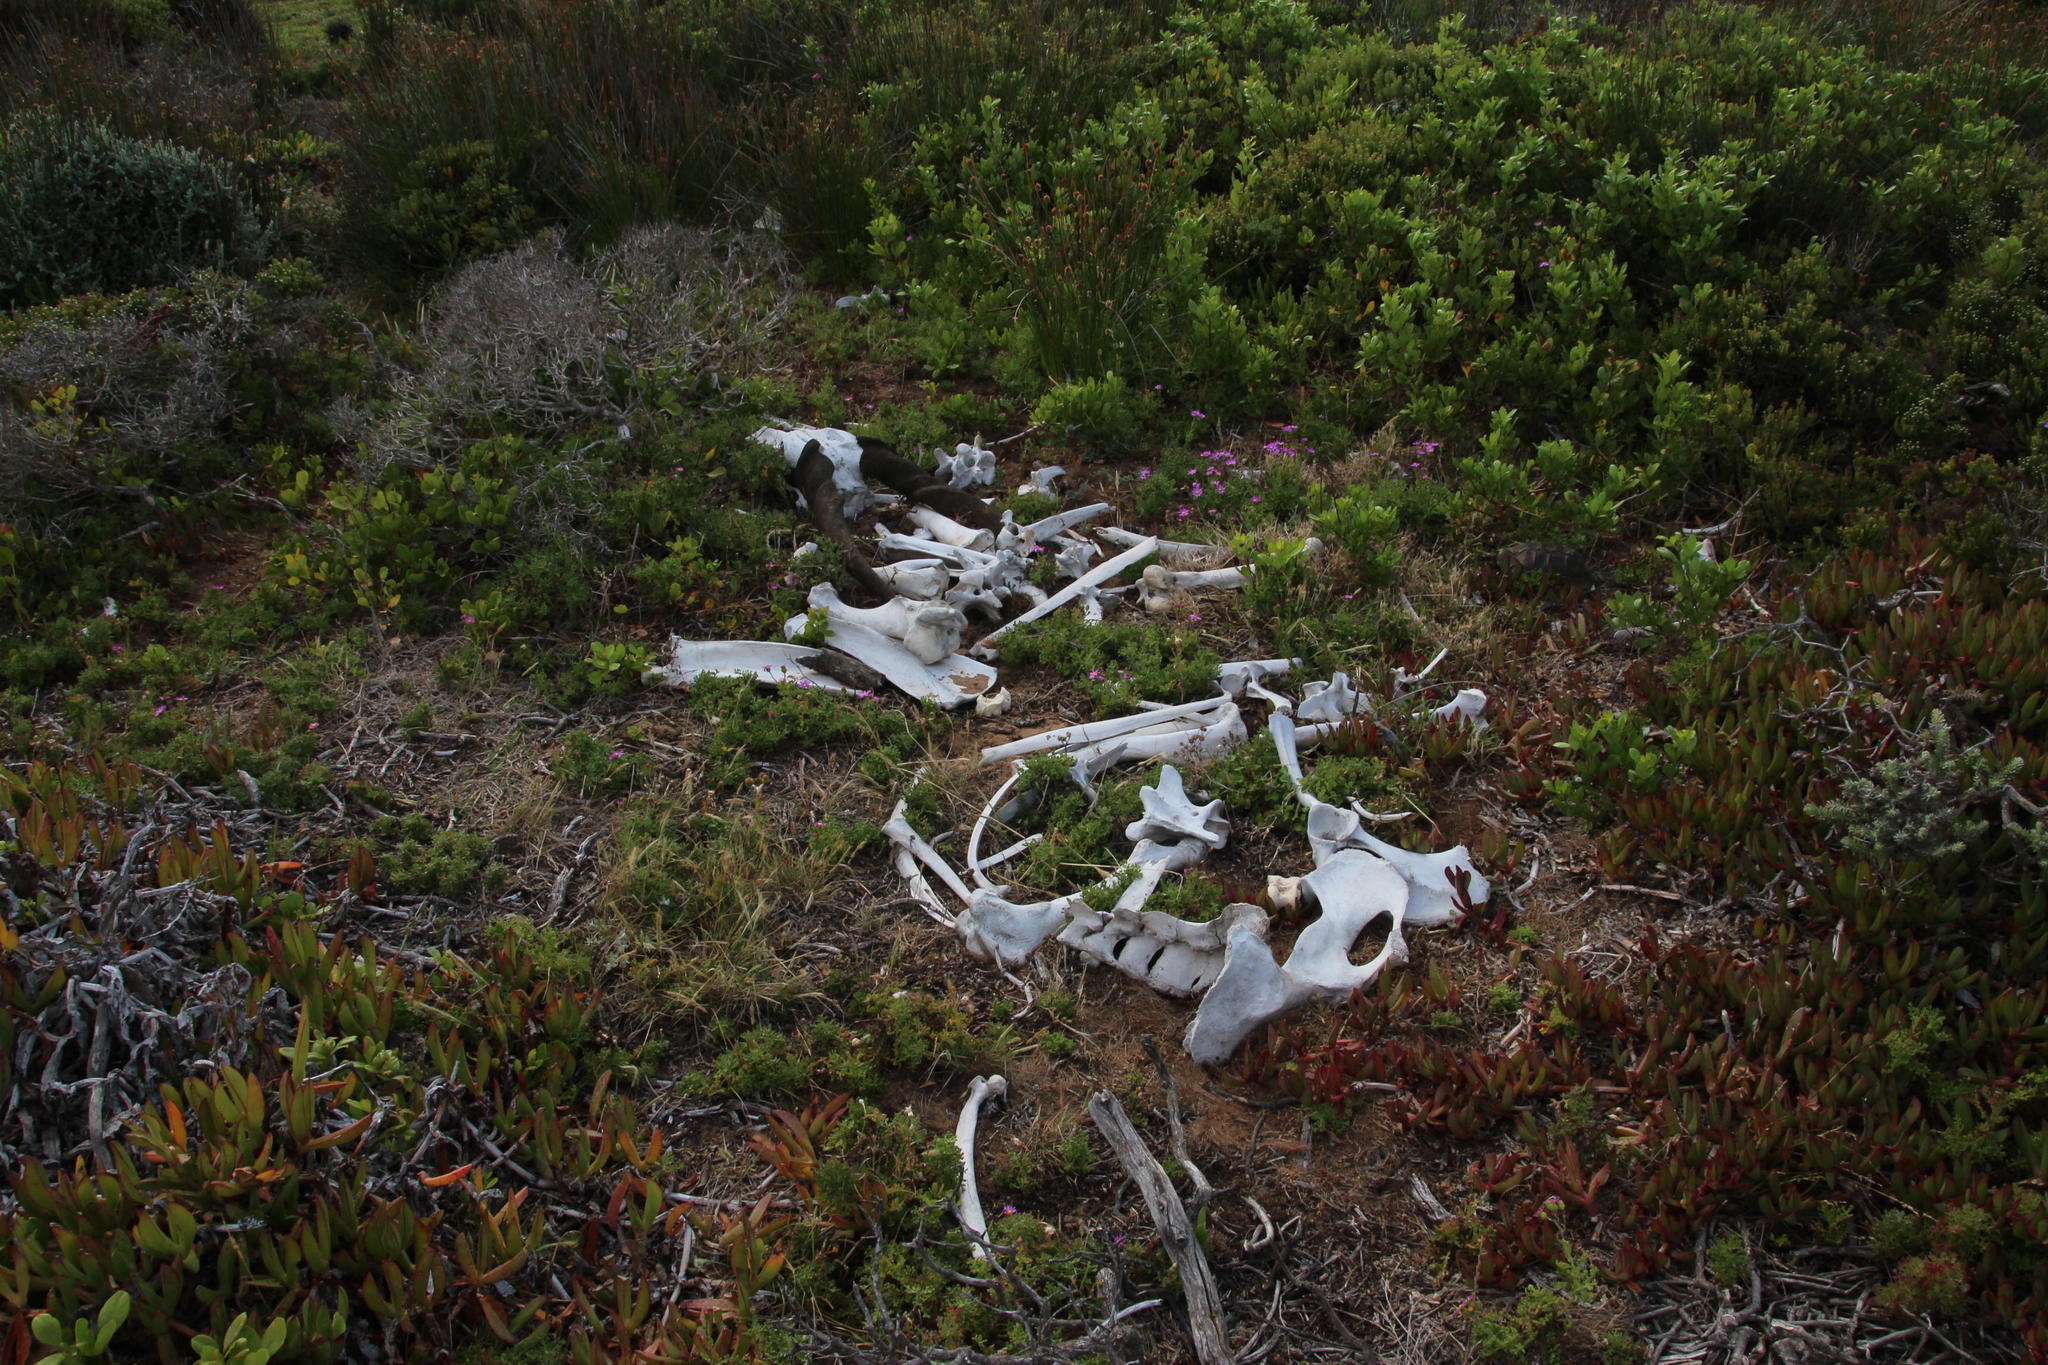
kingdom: Animalia
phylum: Chordata
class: Mammalia
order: Artiodactyla
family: Bovidae
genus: Taurotragus
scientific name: Taurotragus oryx
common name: Common eland
